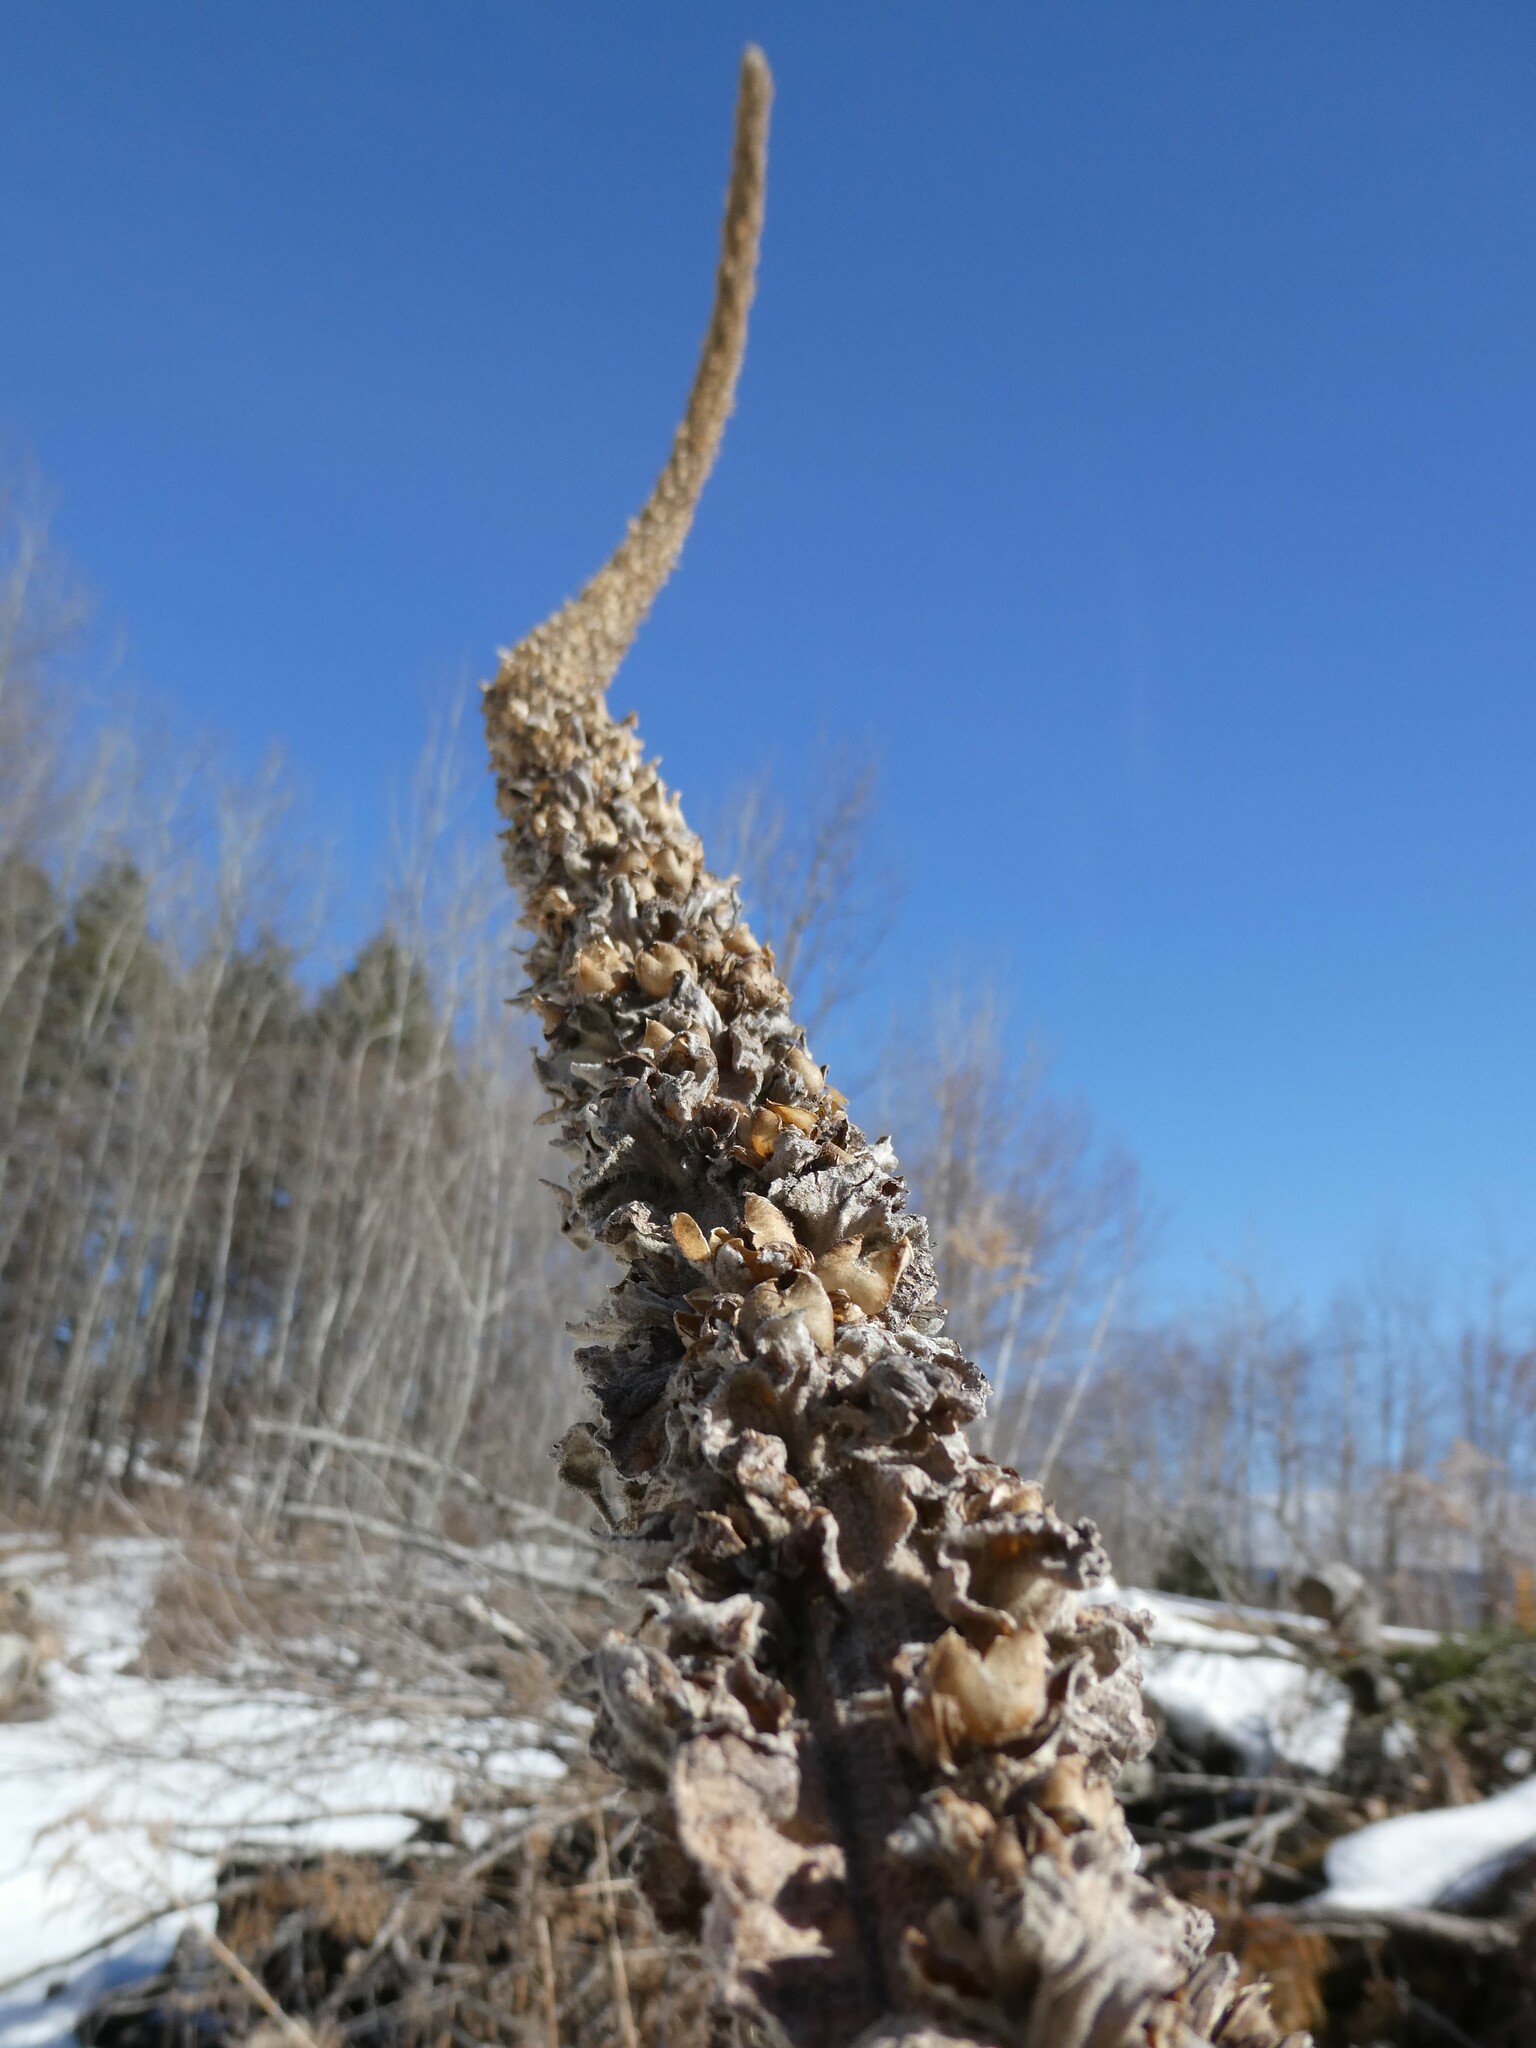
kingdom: Plantae
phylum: Tracheophyta
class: Magnoliopsida
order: Lamiales
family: Scrophulariaceae
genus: Verbascum
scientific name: Verbascum thapsus
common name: Common mullein
